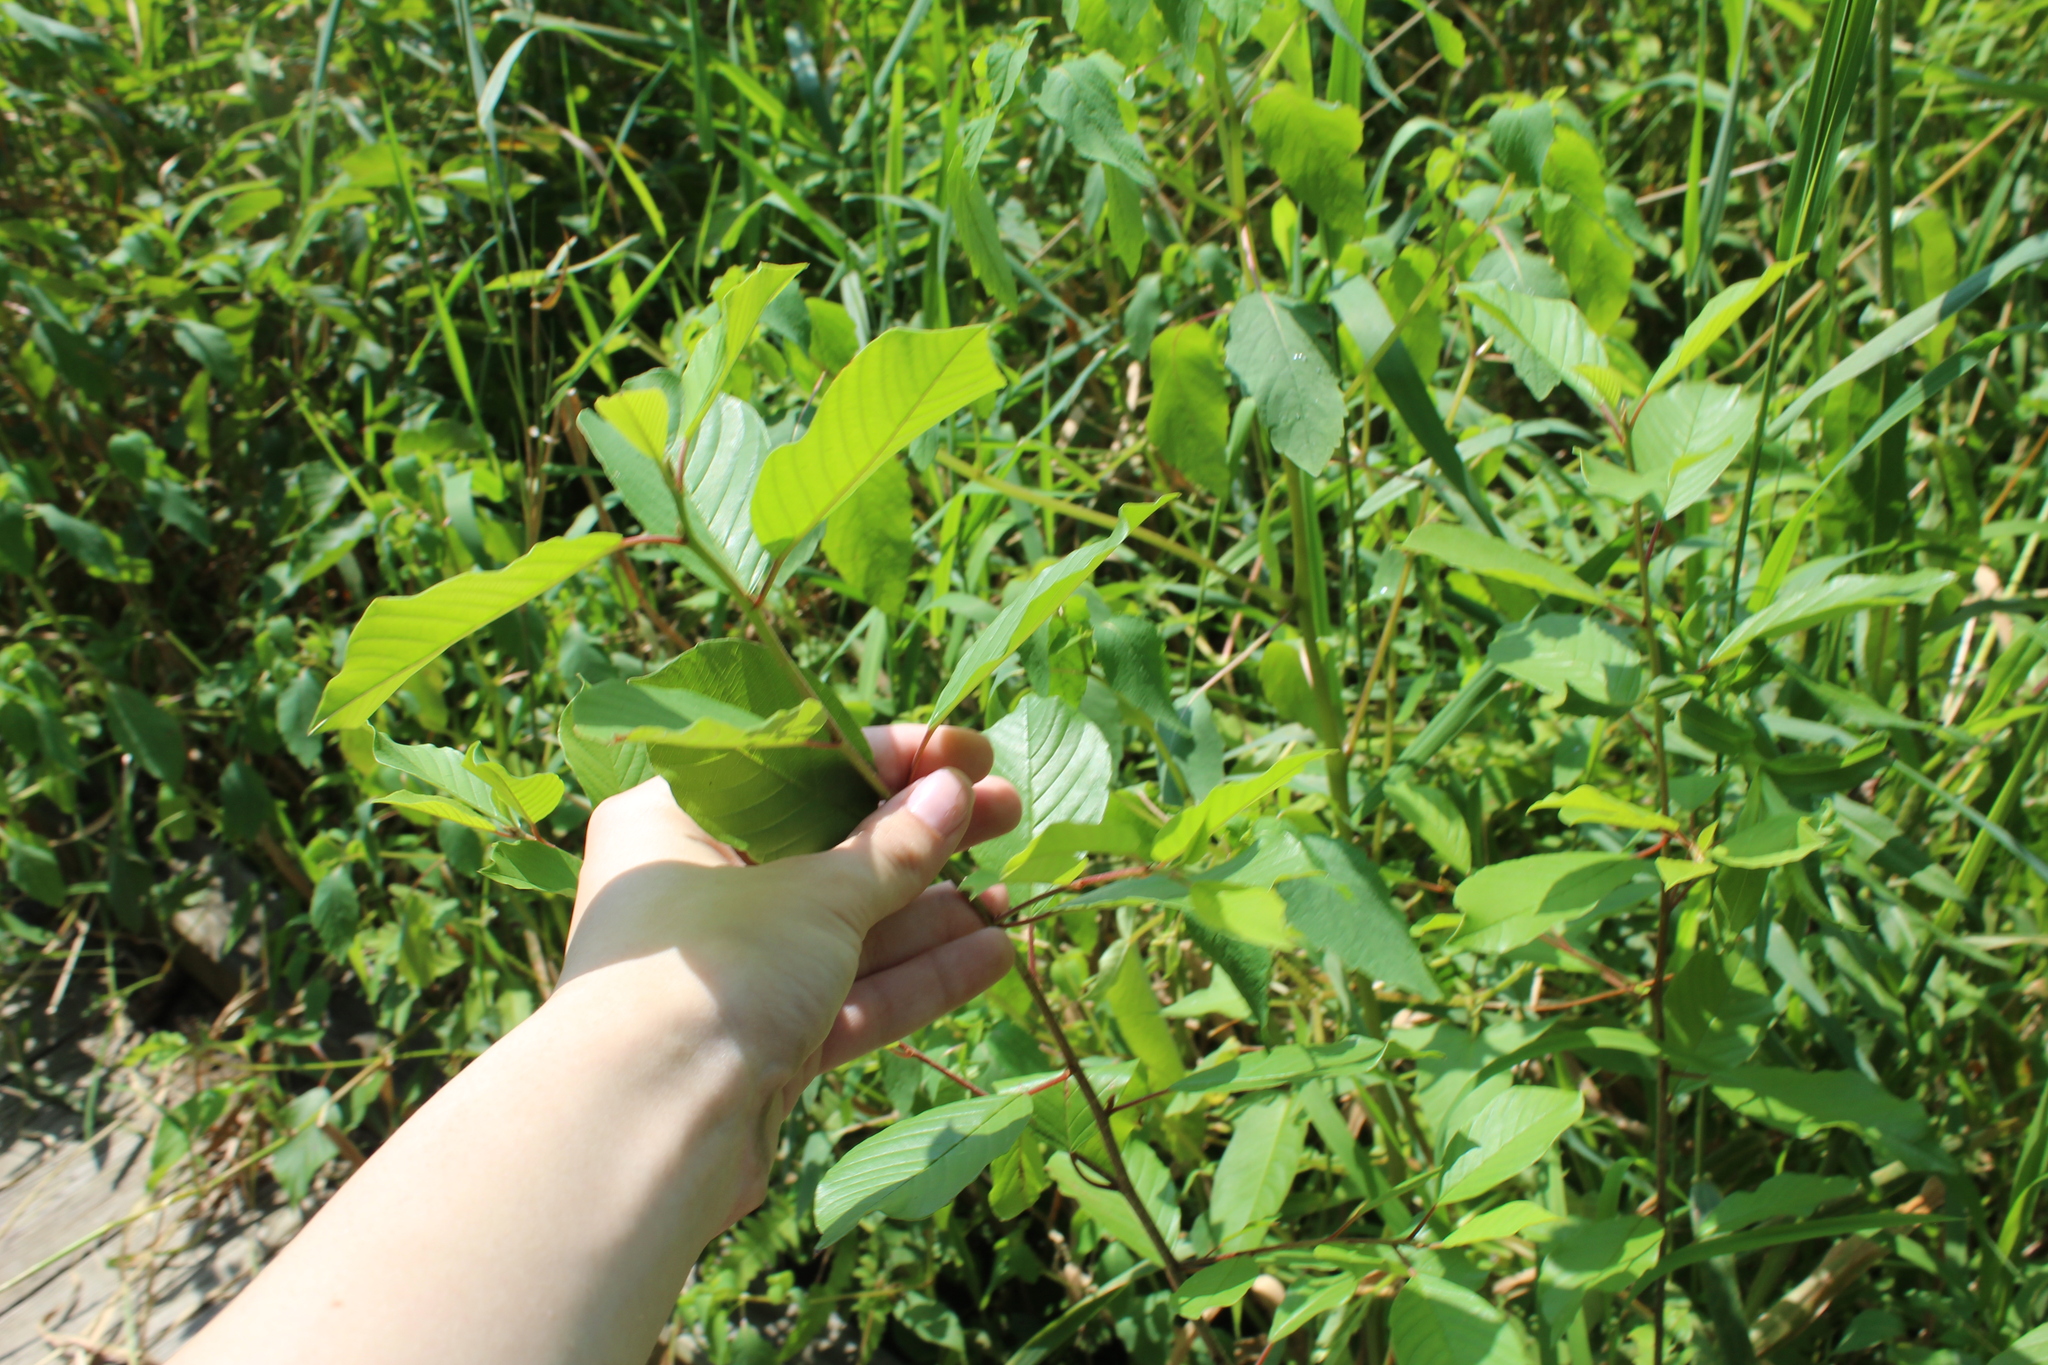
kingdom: Plantae
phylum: Tracheophyta
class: Magnoliopsida
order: Rosales
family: Rhamnaceae
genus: Frangula
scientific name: Frangula alnus
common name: Alder buckthorn
